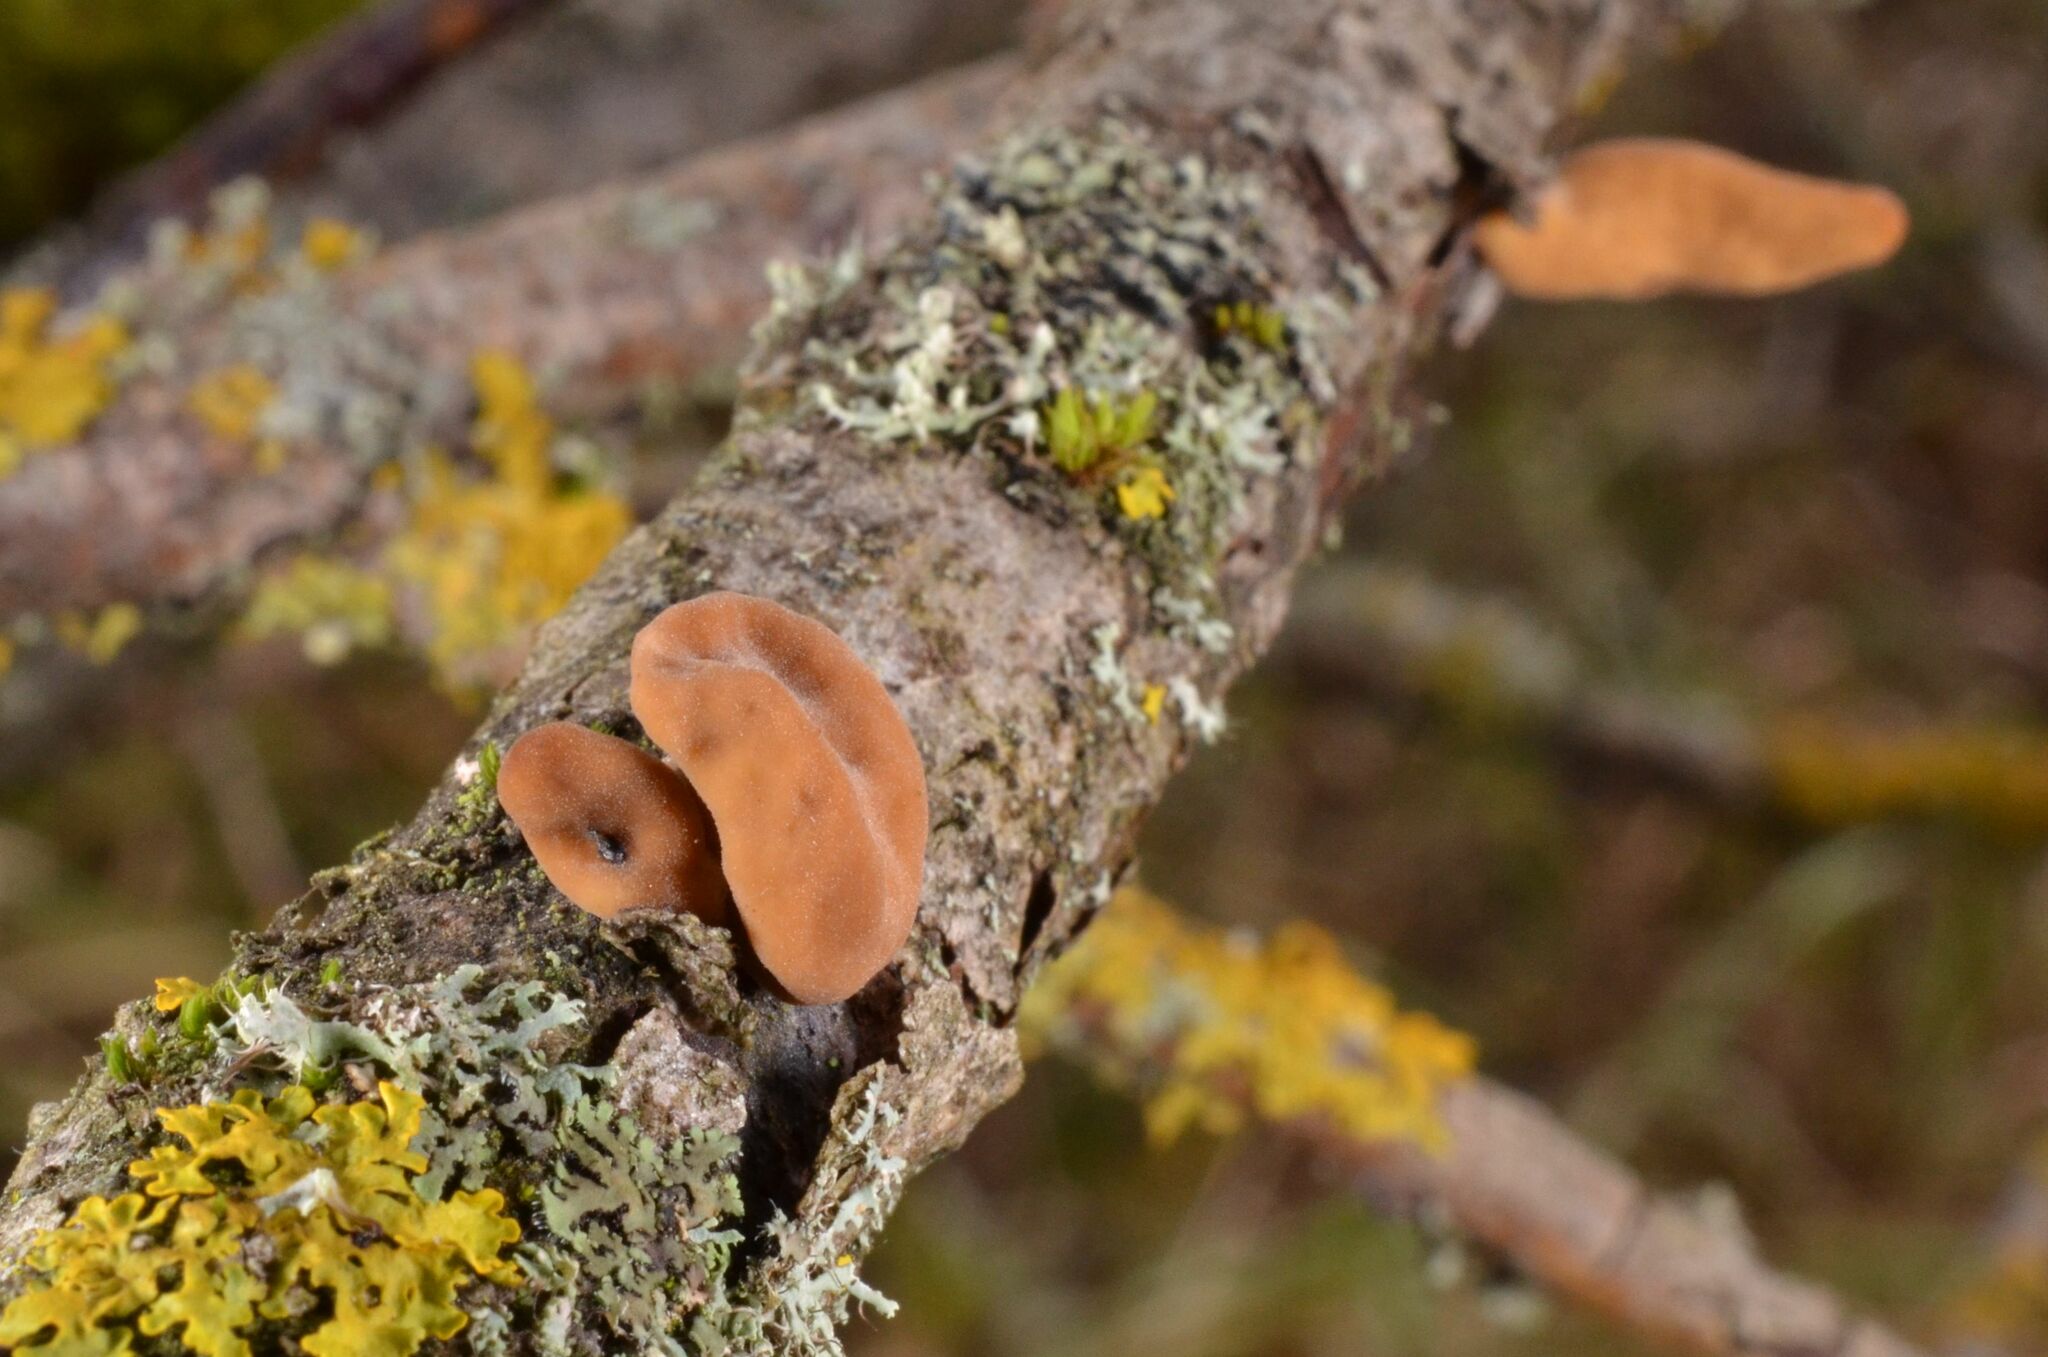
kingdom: Fungi
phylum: Basidiomycota
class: Agaricomycetes
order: Agaricales
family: Typhulaceae
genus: Typhula
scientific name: Typhula contorta
